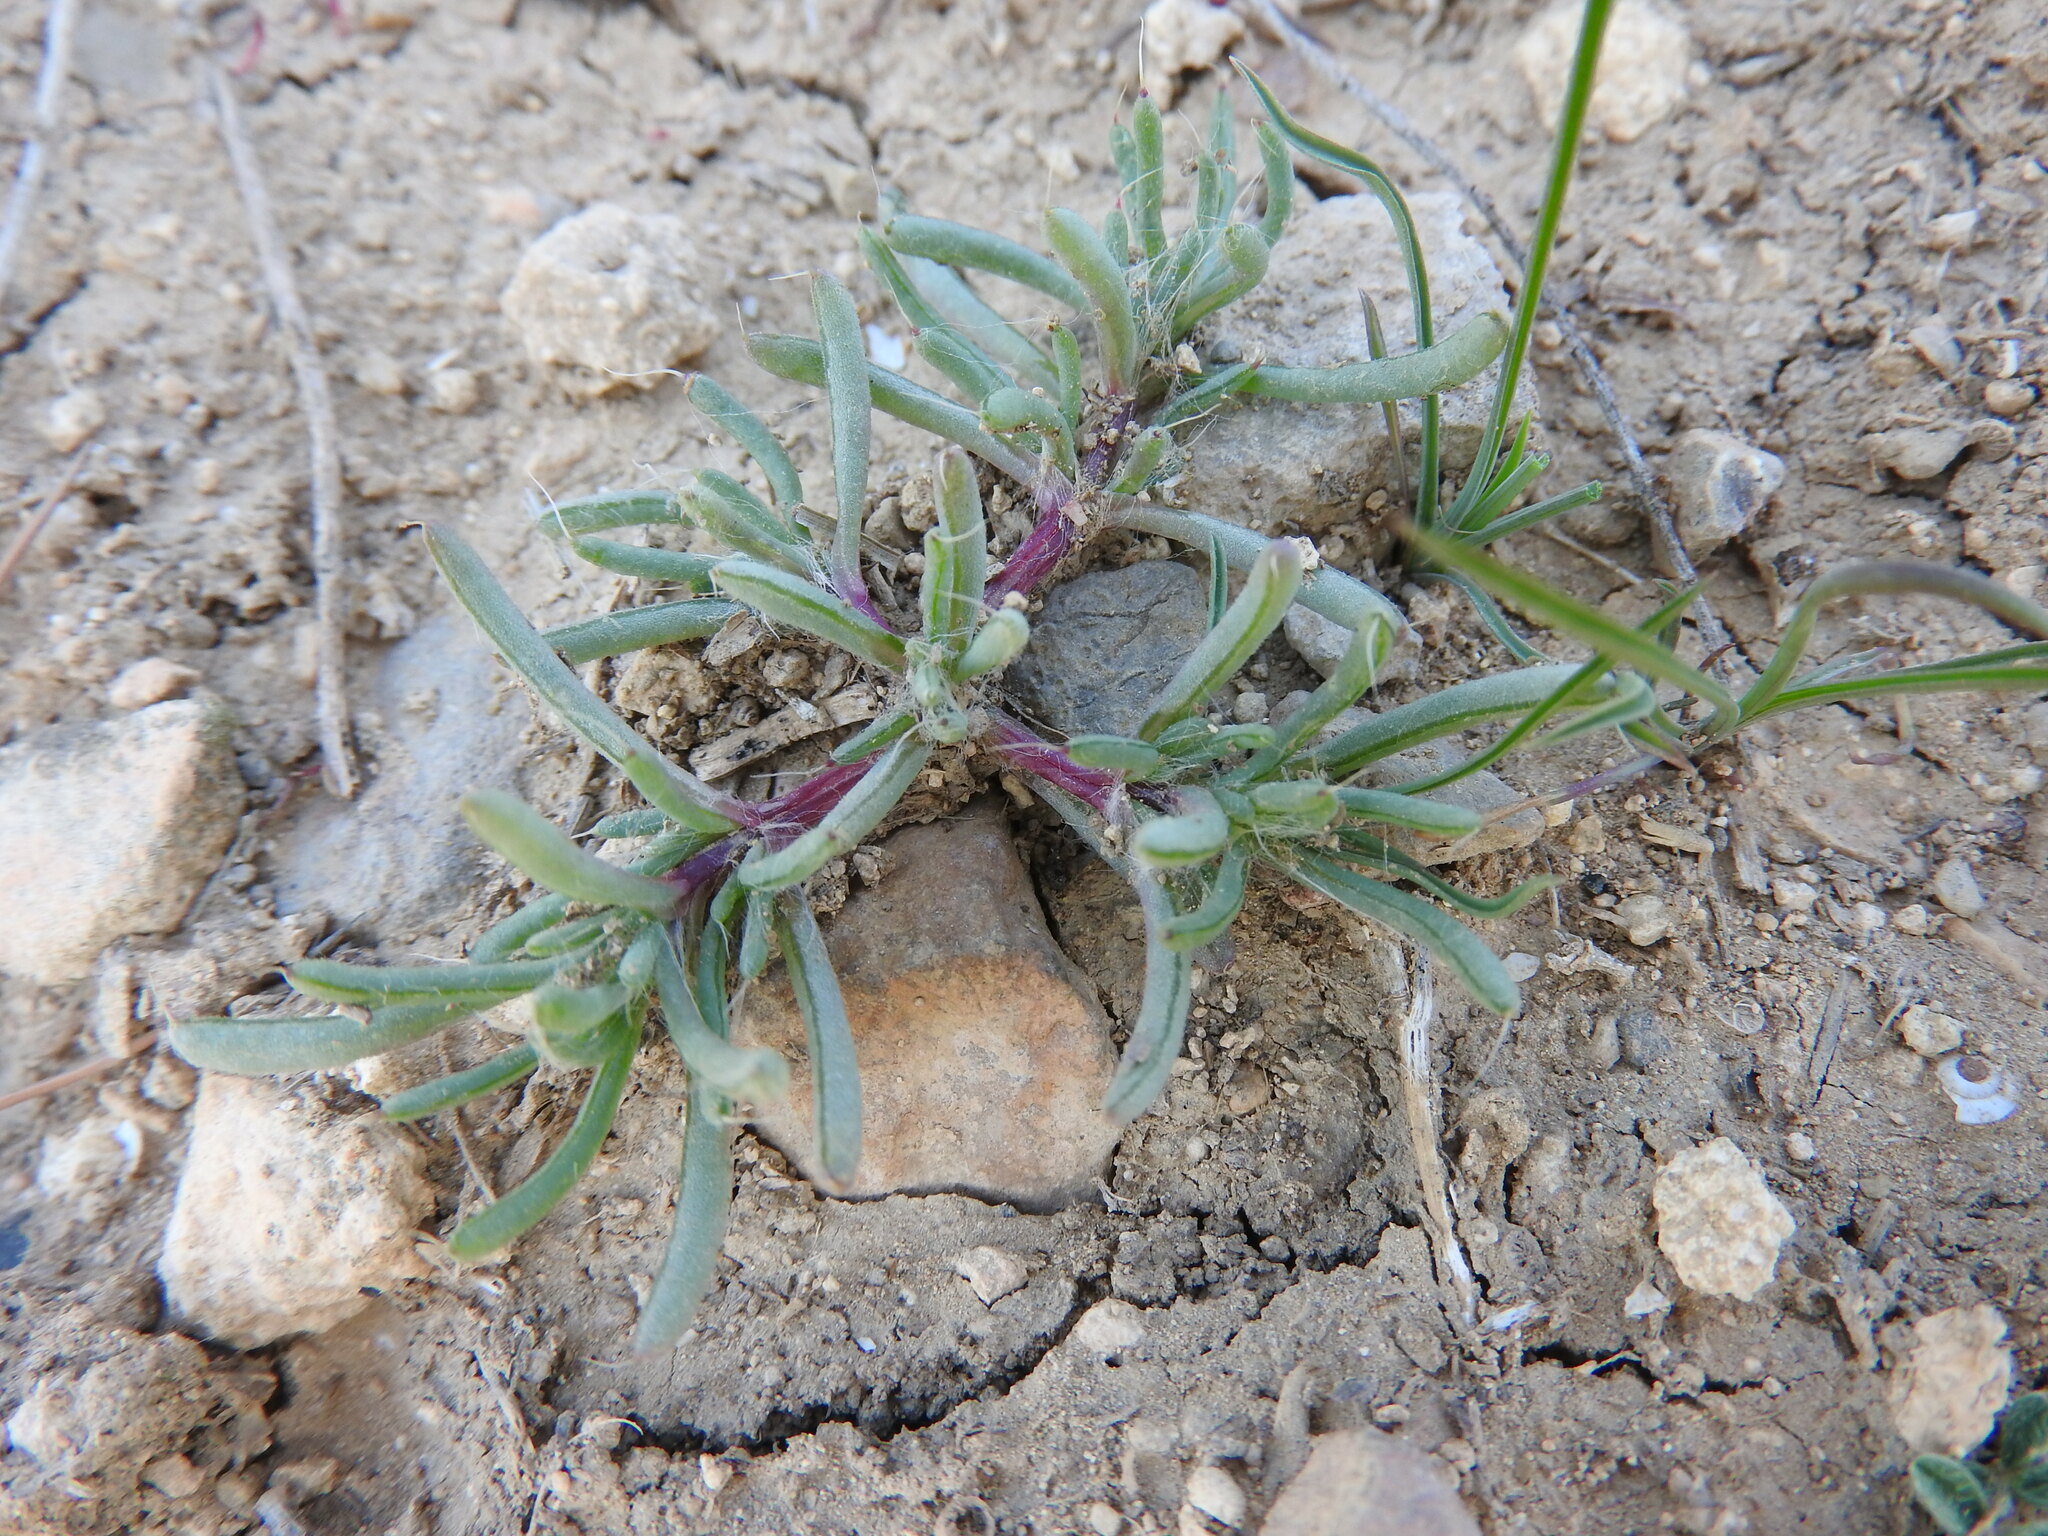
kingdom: Plantae
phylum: Tracheophyta
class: Magnoliopsida
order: Caryophyllales
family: Amaranthaceae
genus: Halogeton
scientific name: Halogeton sativus
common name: Barilla
